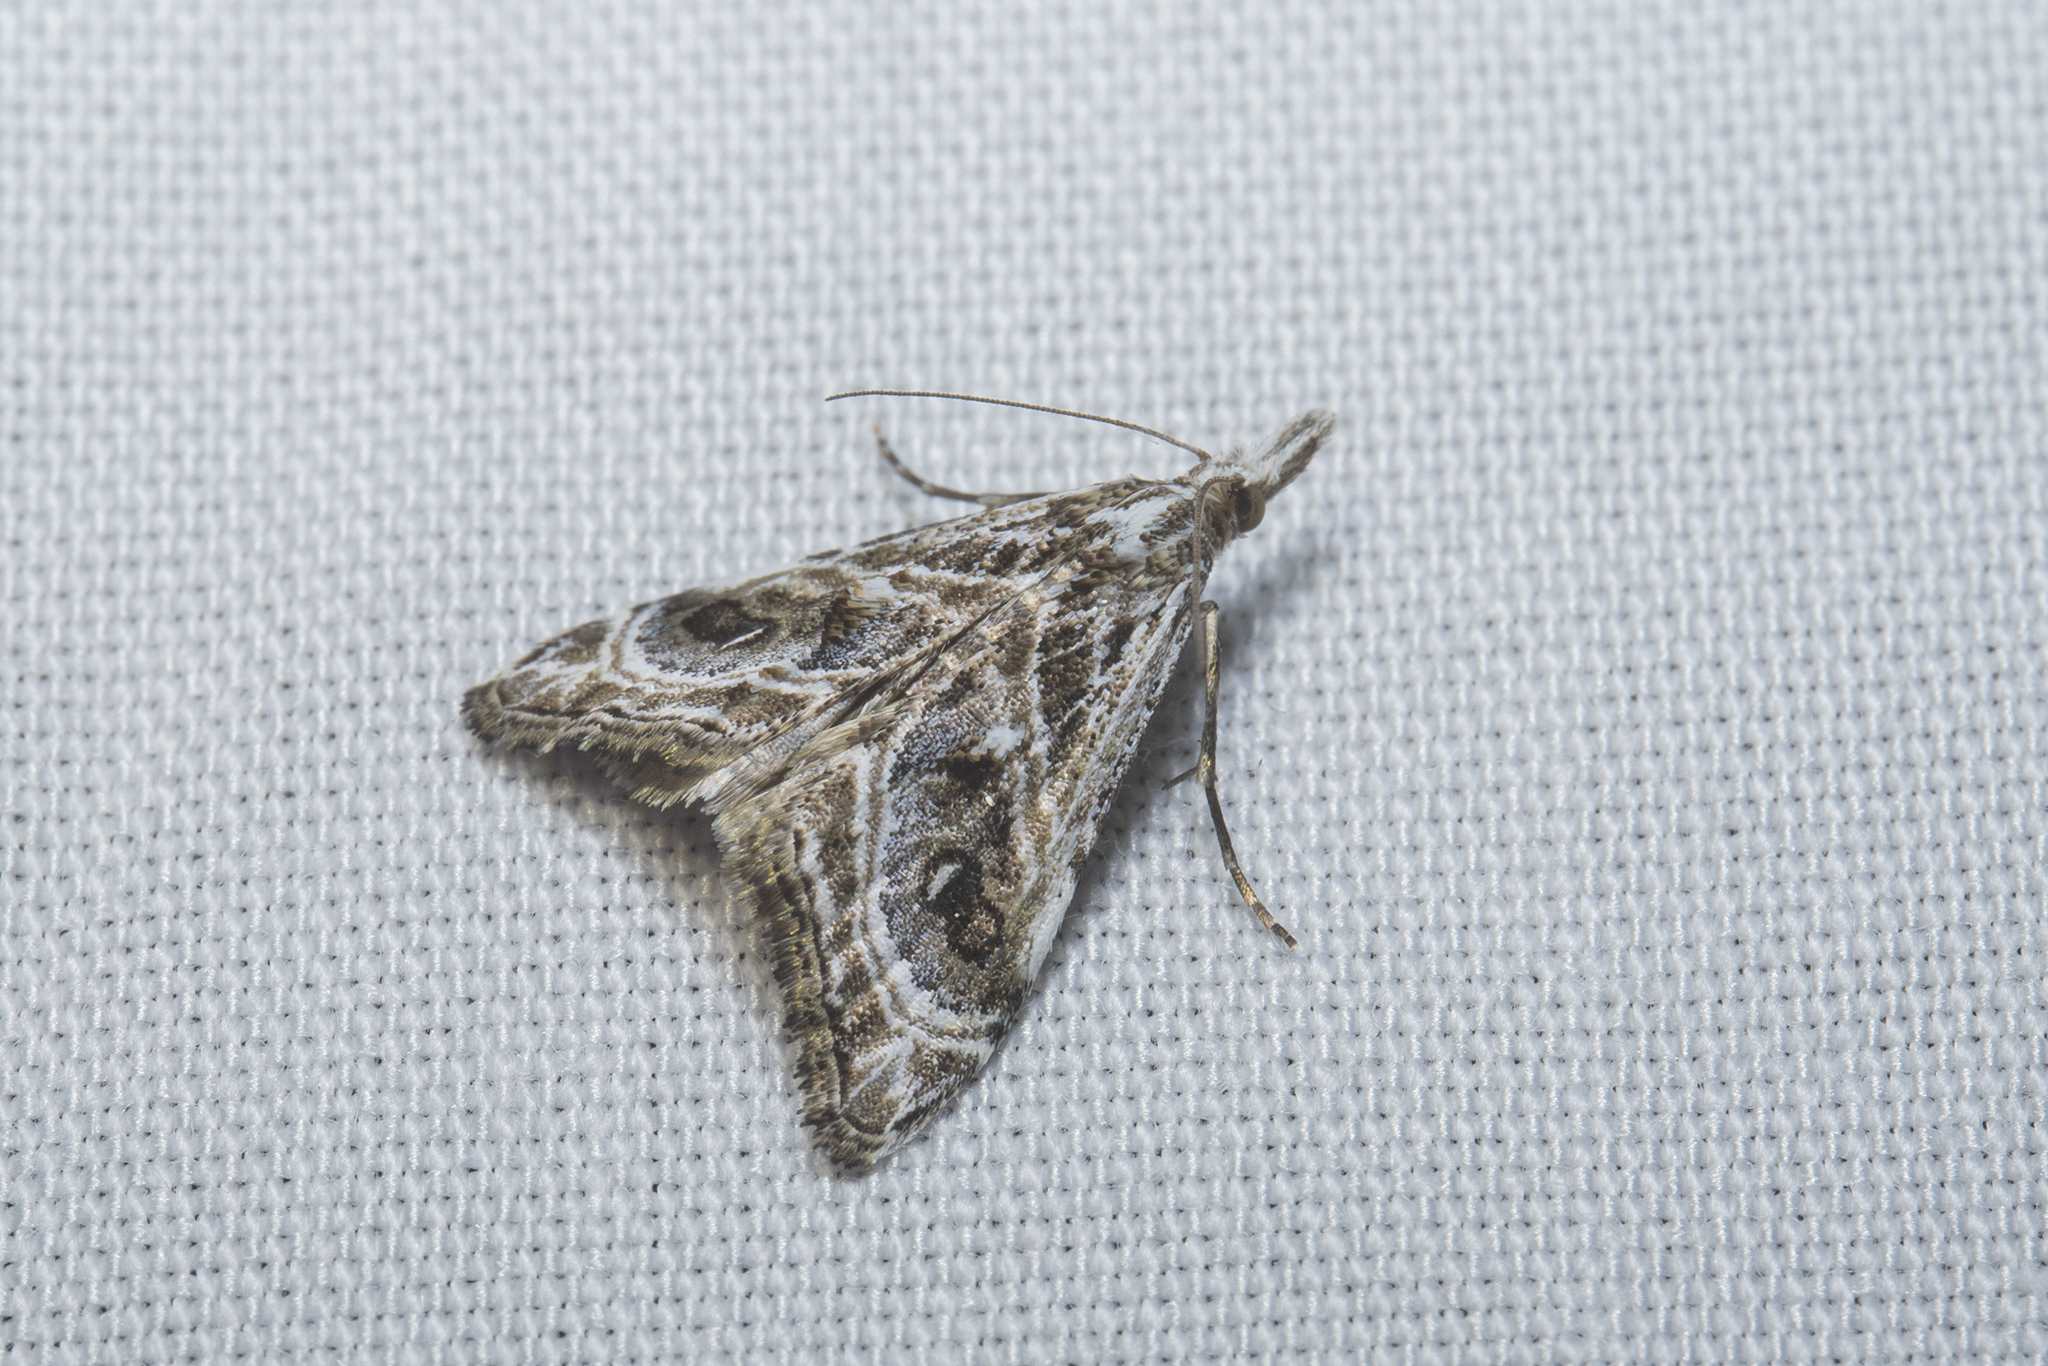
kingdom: Animalia
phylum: Arthropoda
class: Insecta
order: Lepidoptera
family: Crambidae
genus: Gadira
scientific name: Gadira acerella
